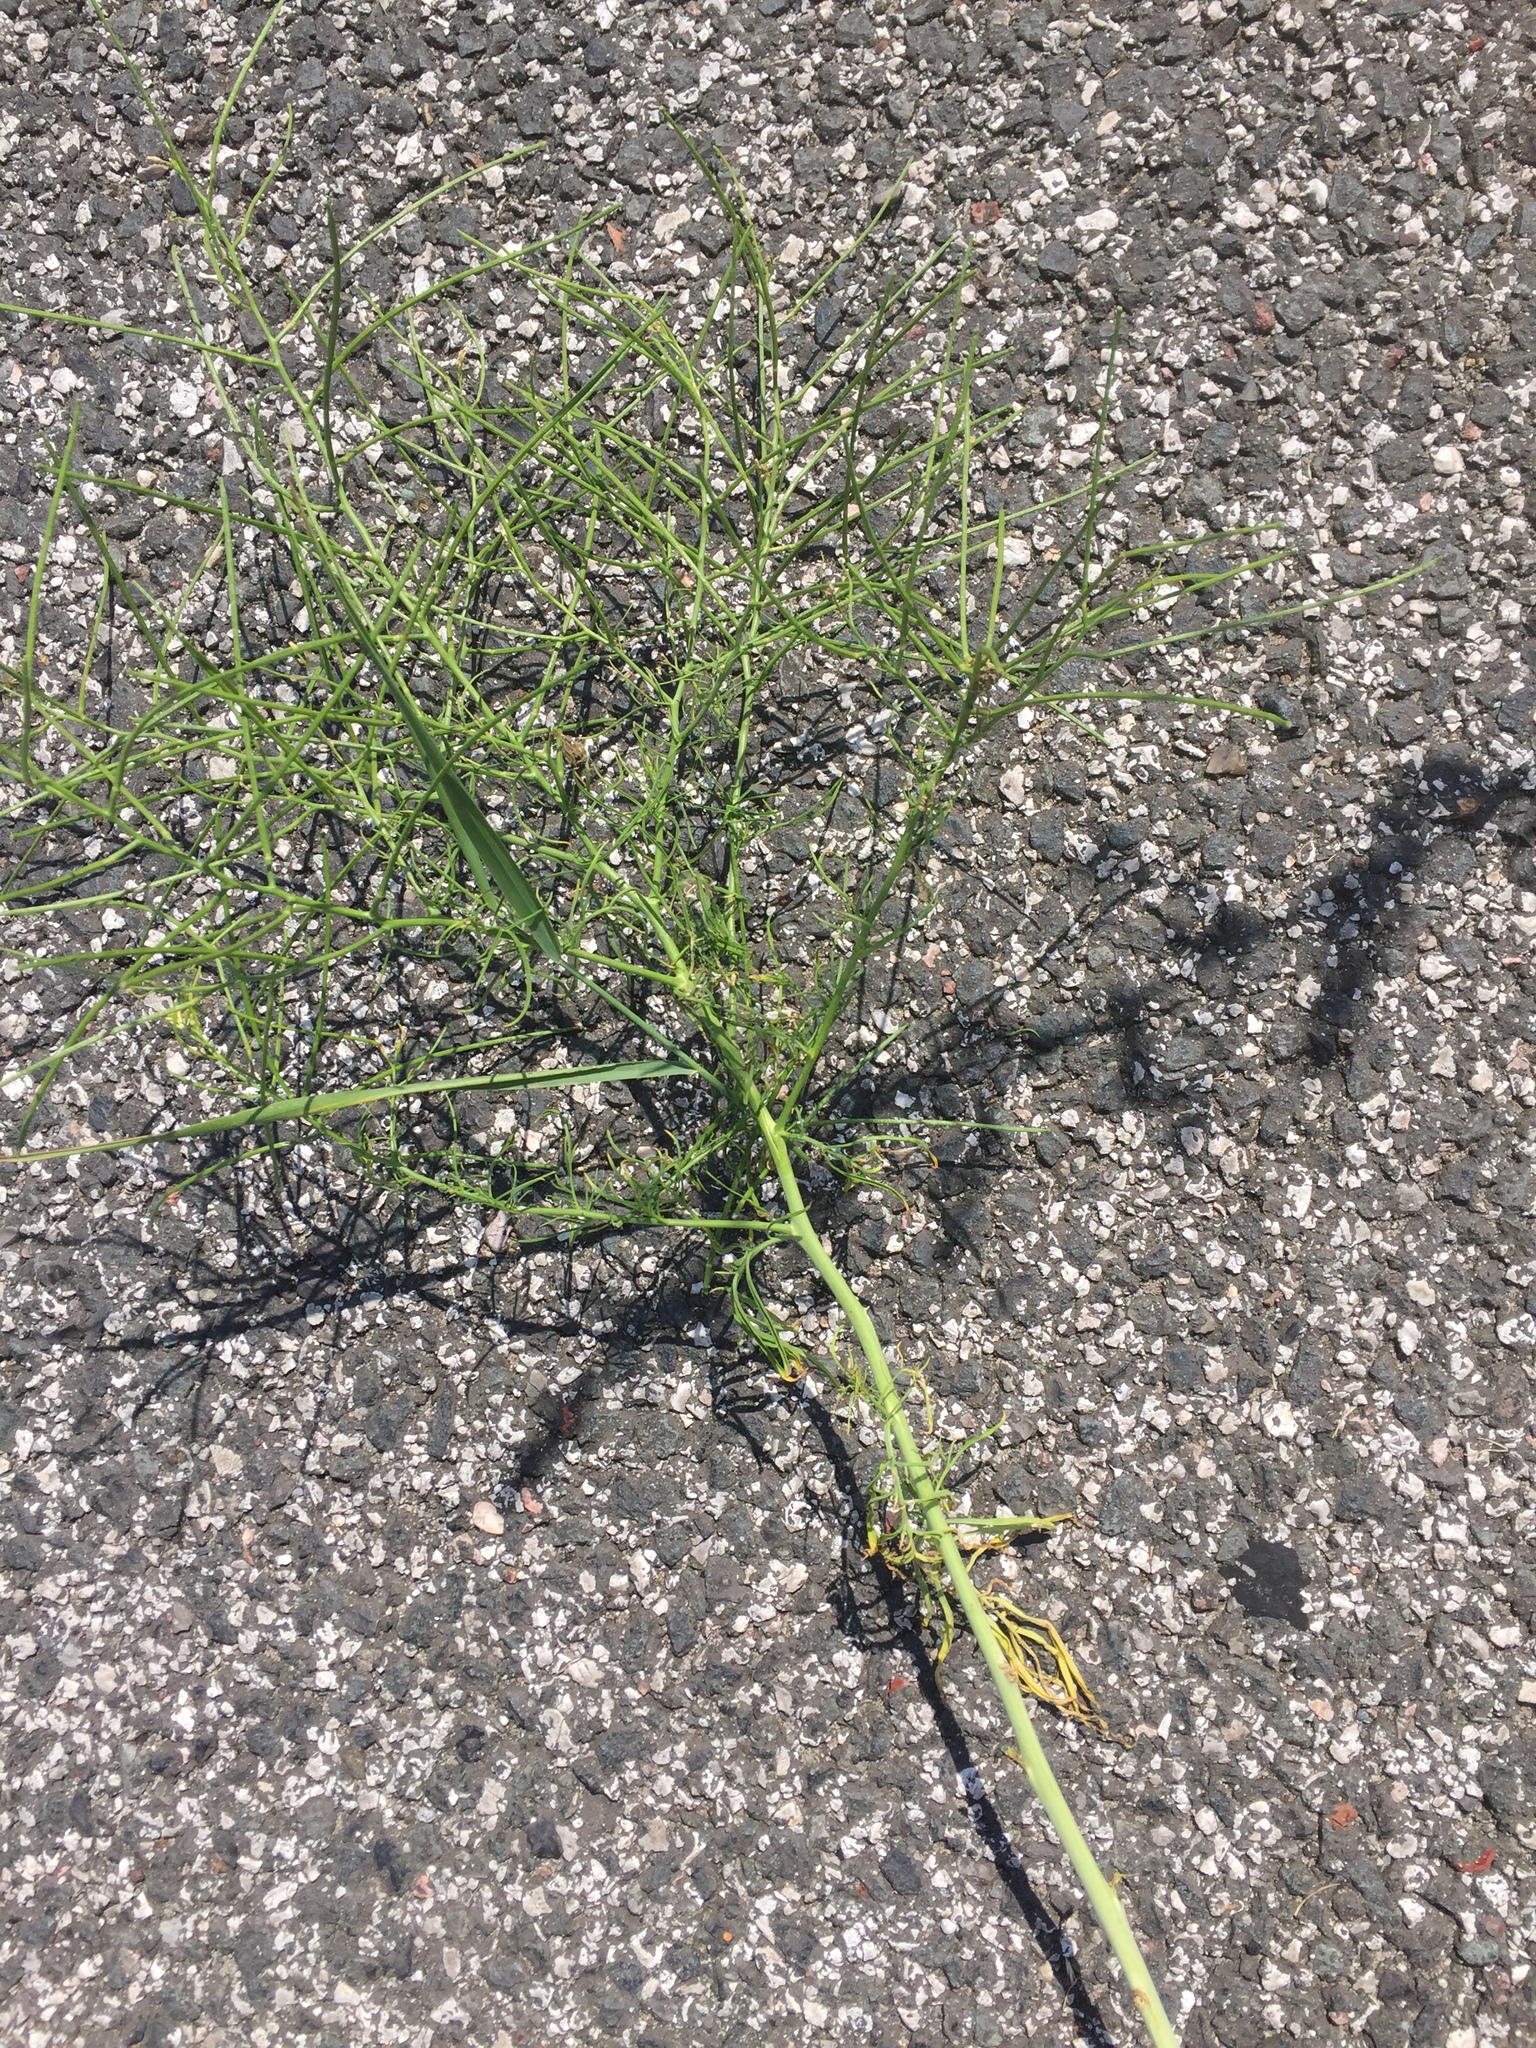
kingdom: Plantae
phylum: Tracheophyta
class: Magnoliopsida
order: Brassicales
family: Brassicaceae
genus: Sisymbrium
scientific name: Sisymbrium altissimum
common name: Tall rocket
